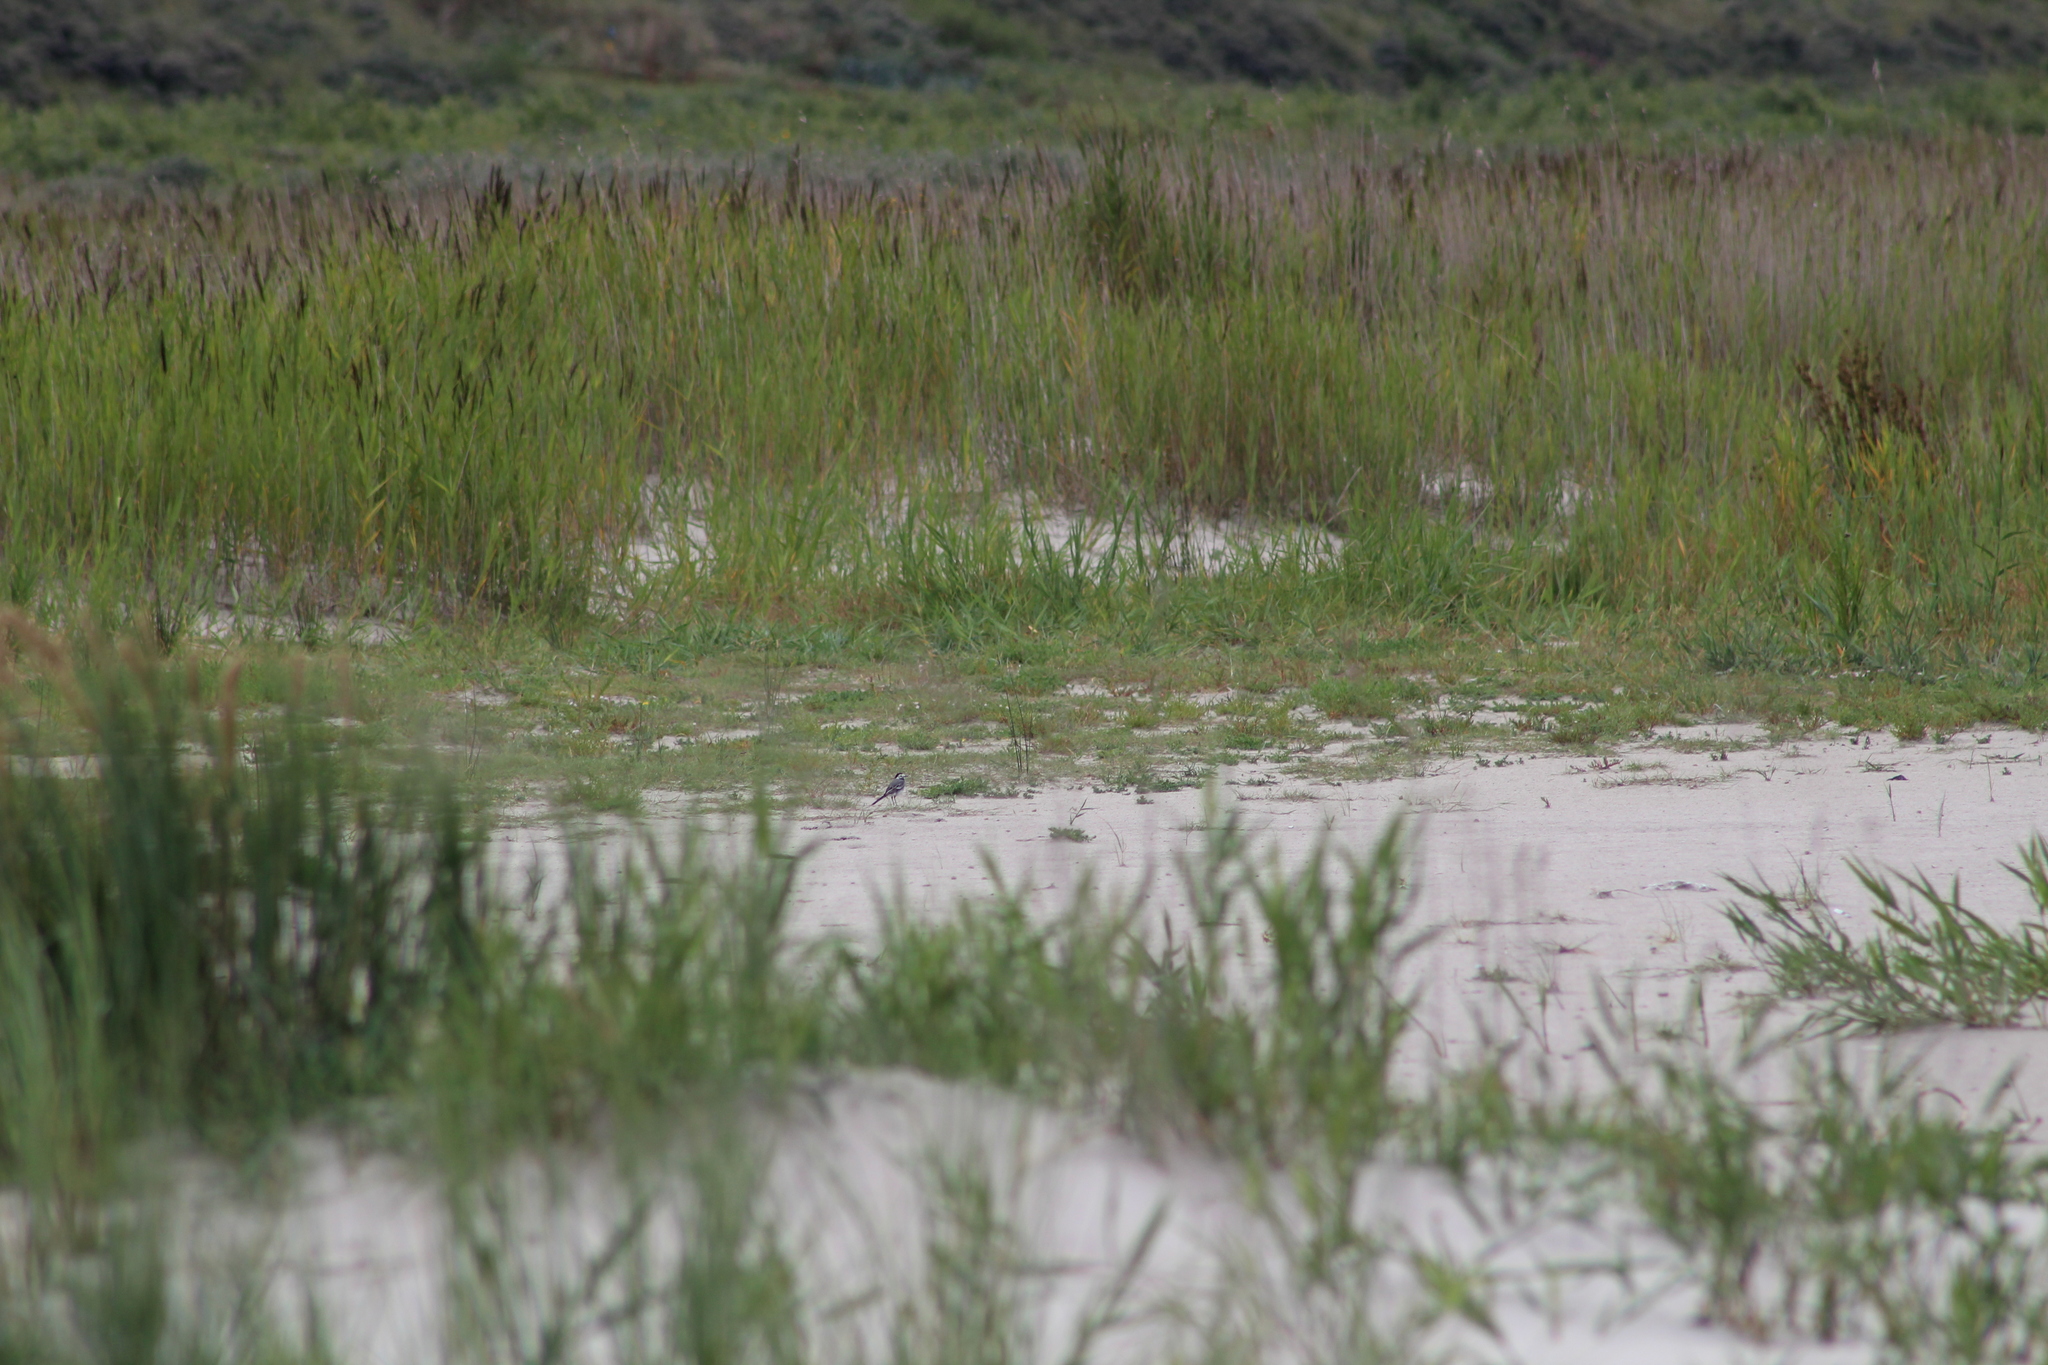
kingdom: Animalia
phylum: Chordata
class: Aves
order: Passeriformes
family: Motacillidae
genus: Motacilla
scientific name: Motacilla alba
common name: White wagtail
